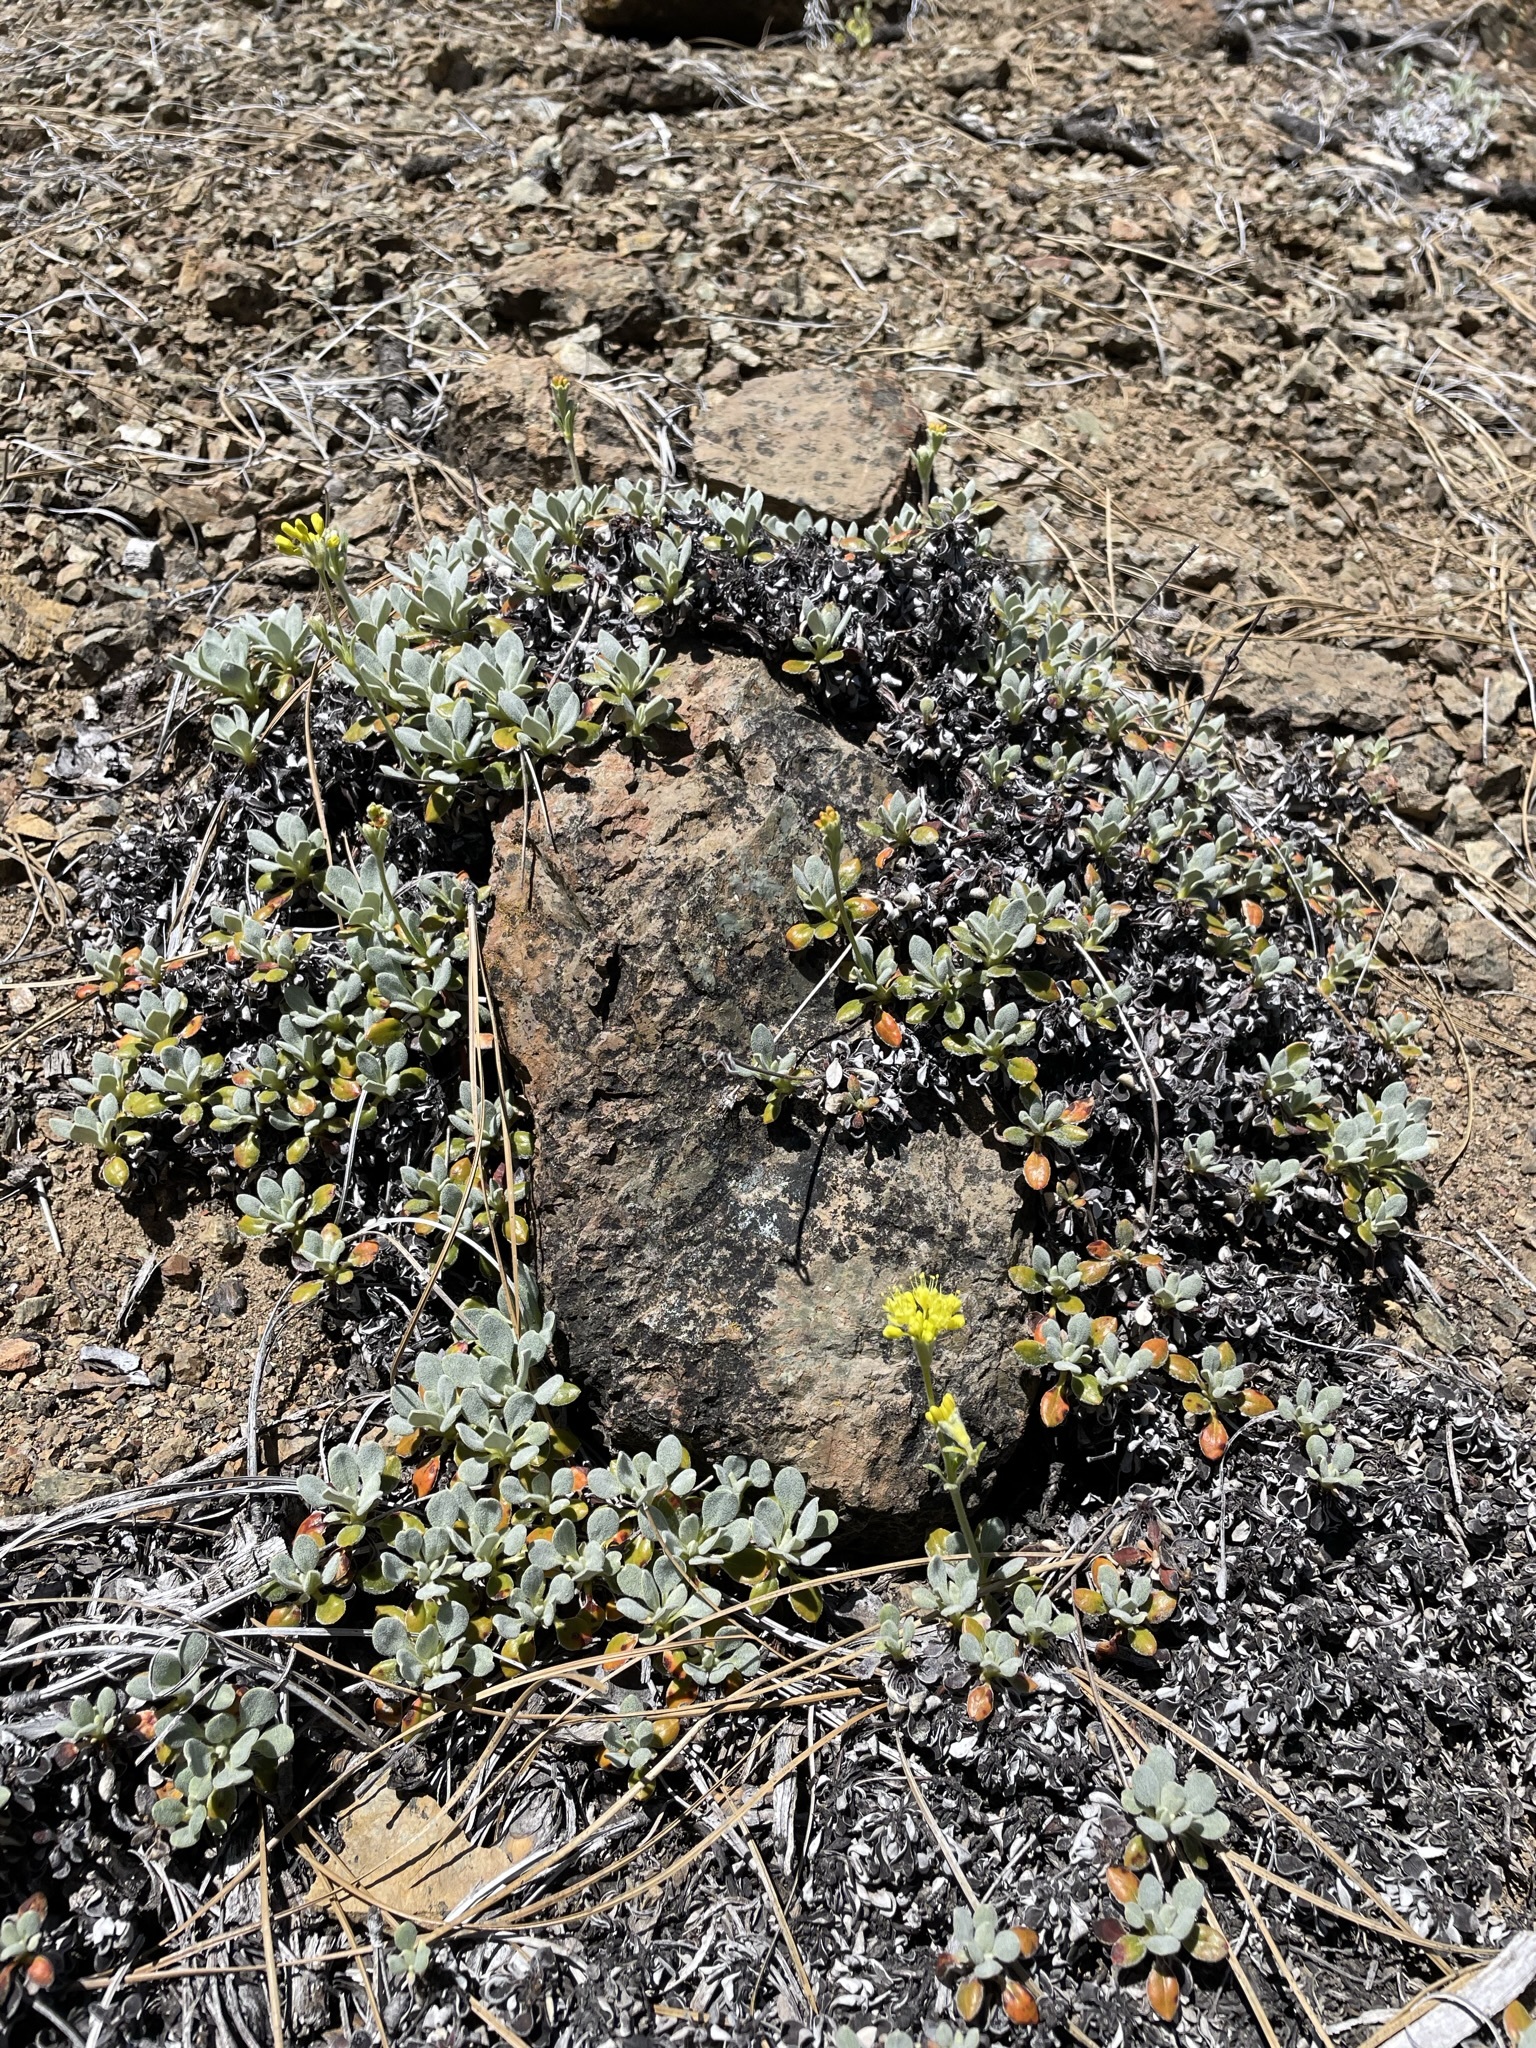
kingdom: Plantae
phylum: Tracheophyta
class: Magnoliopsida
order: Caryophyllales
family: Polygonaceae
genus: Eriogonum
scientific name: Eriogonum libertini
